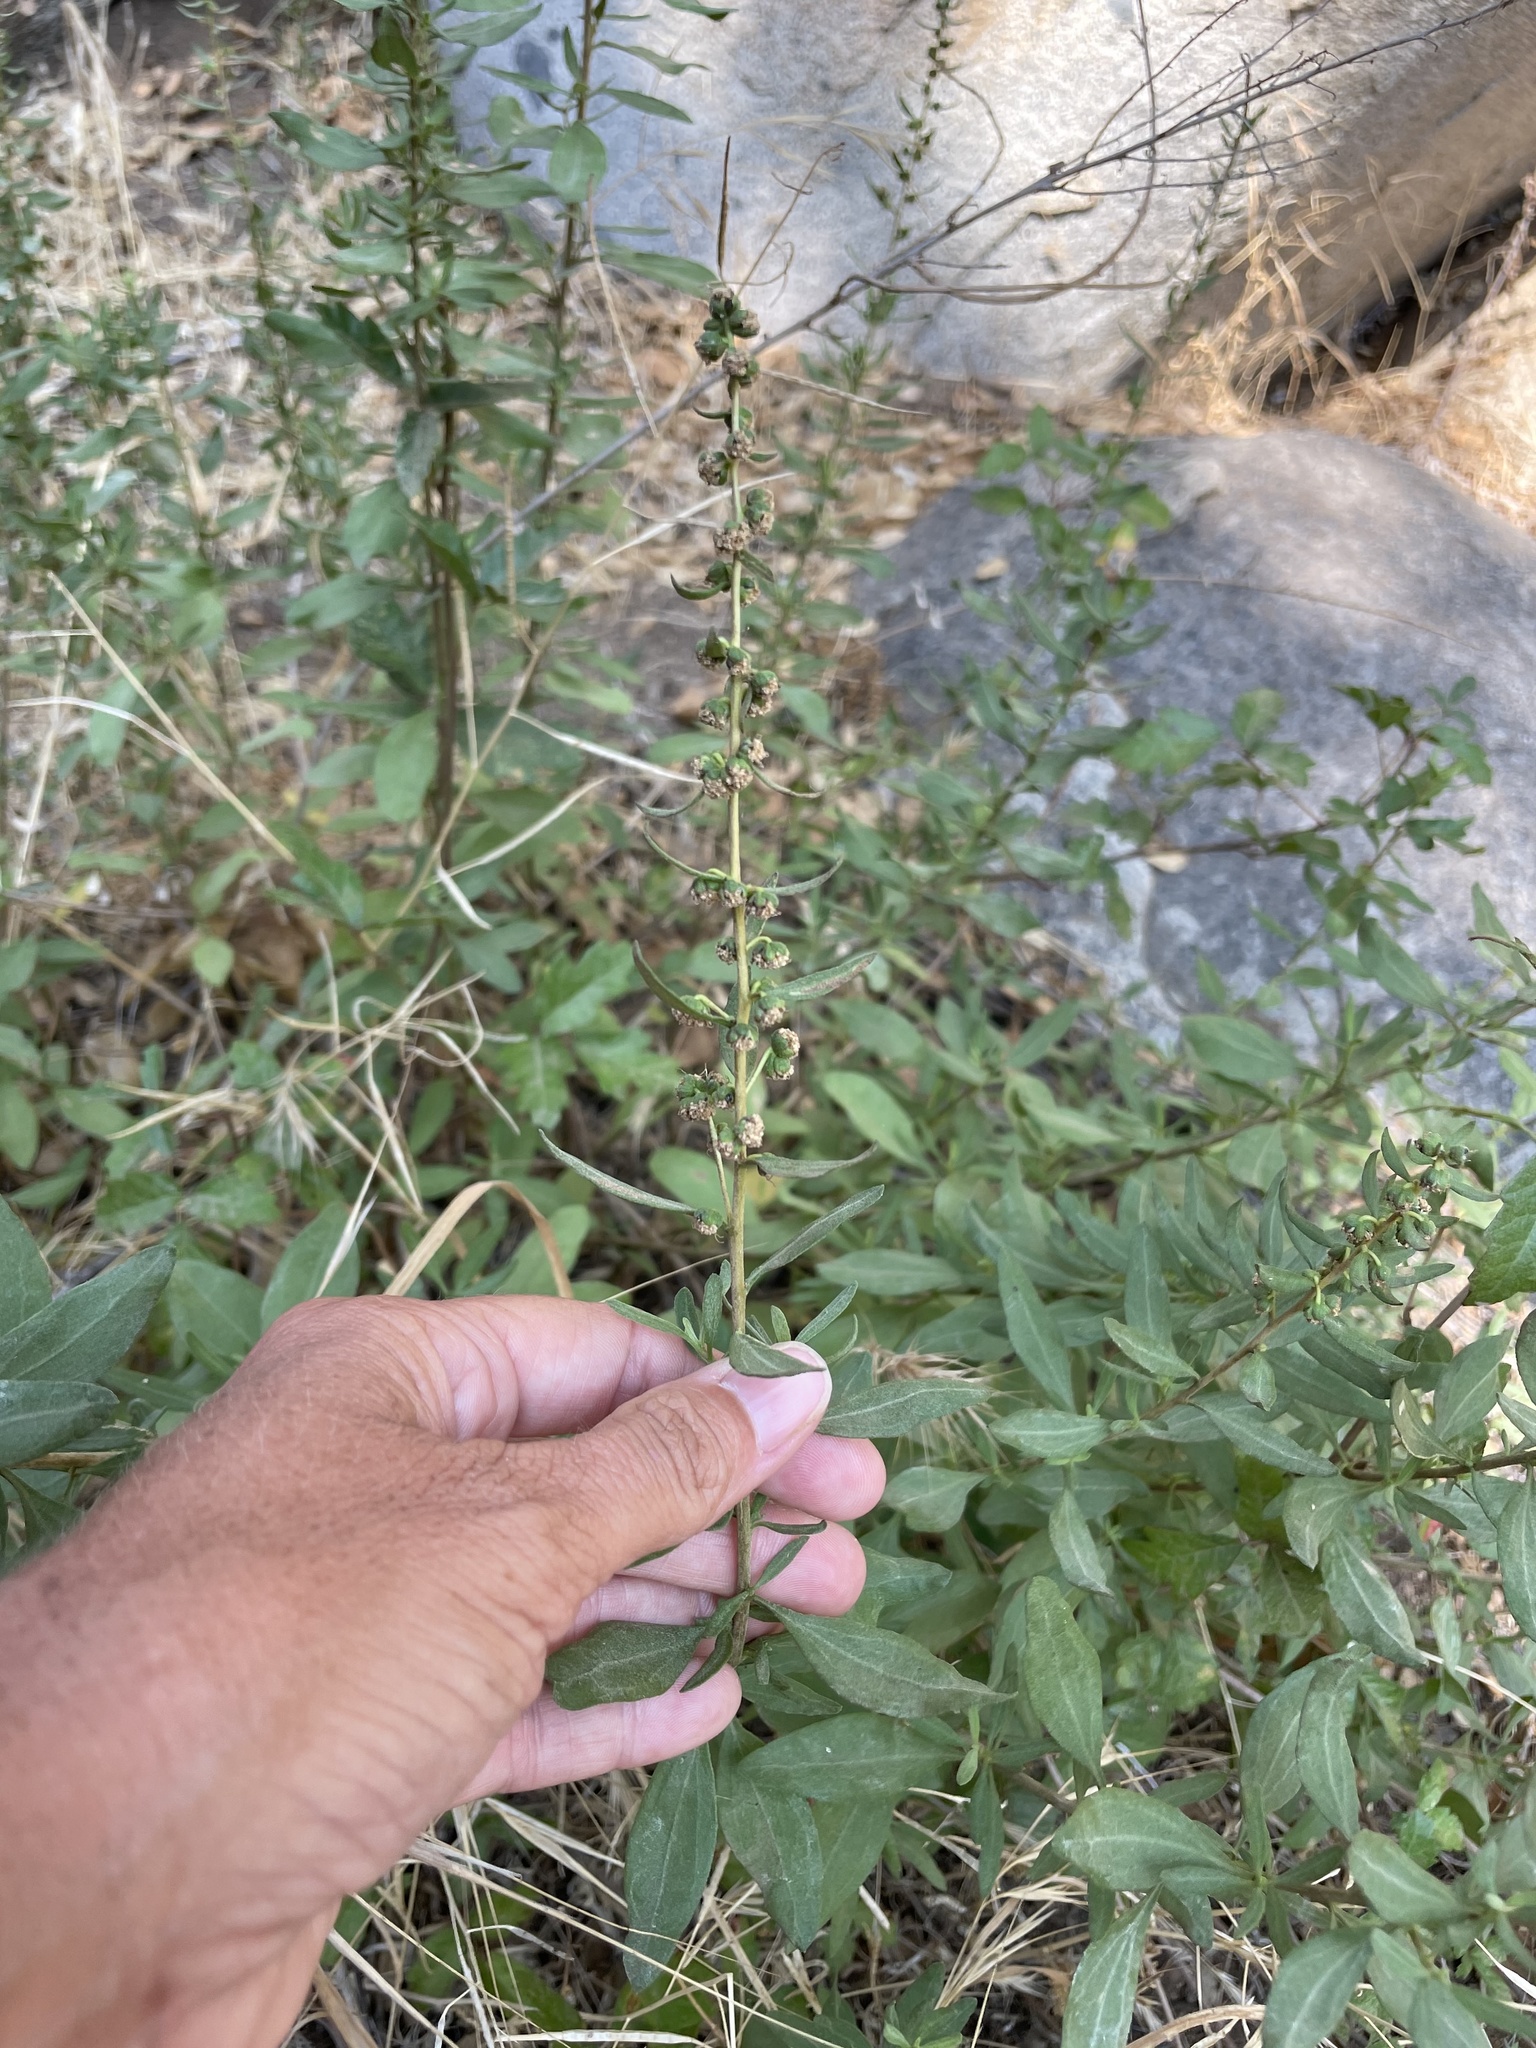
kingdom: Plantae
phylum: Tracheophyta
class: Magnoliopsida
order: Asterales
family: Asteraceae
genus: Iva
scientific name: Iva hayesiana
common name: San diego marsh-elder
